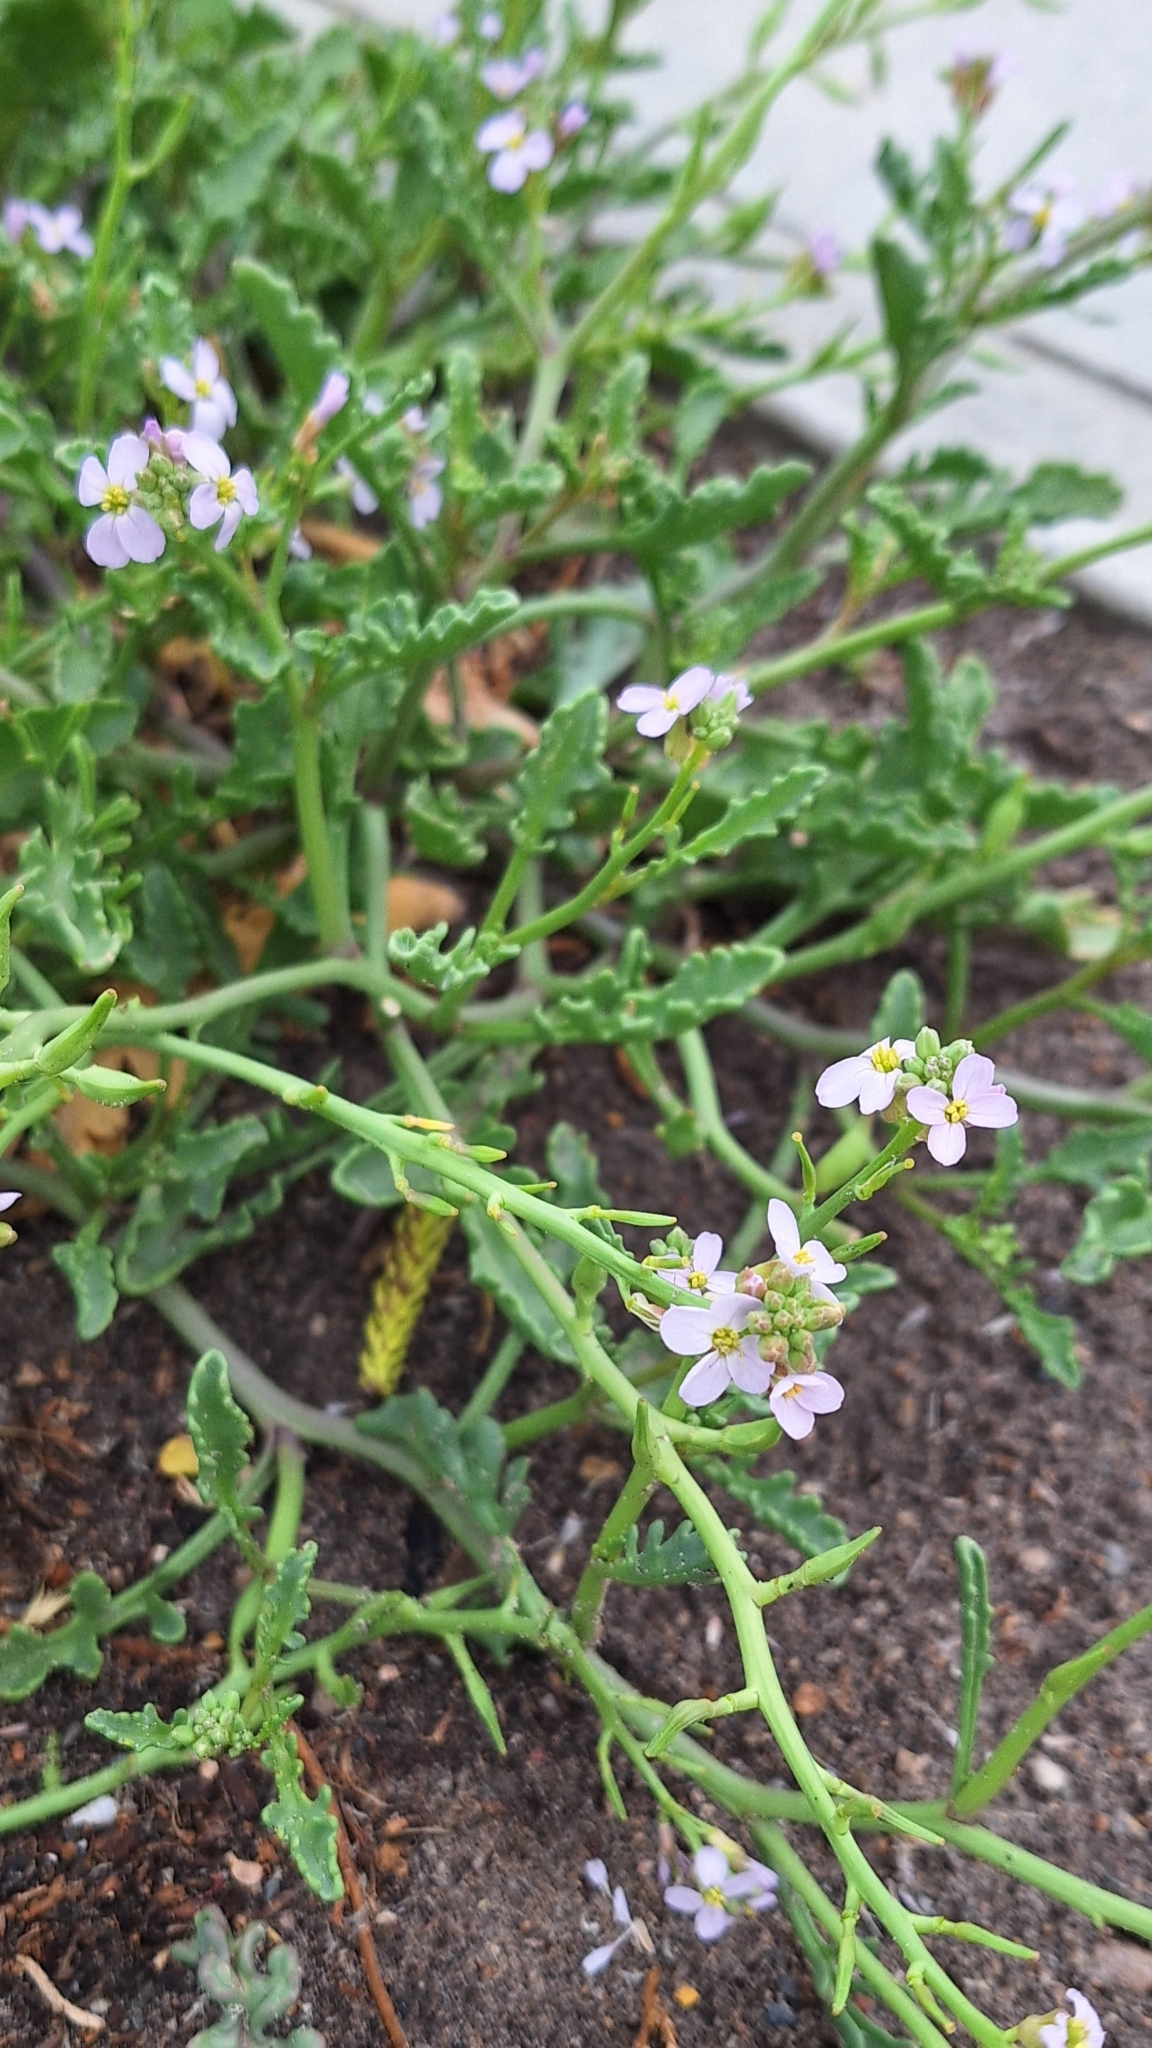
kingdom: Plantae
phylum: Tracheophyta
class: Magnoliopsida
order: Brassicales
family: Brassicaceae
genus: Cakile
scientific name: Cakile maritima
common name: Sea rocket
